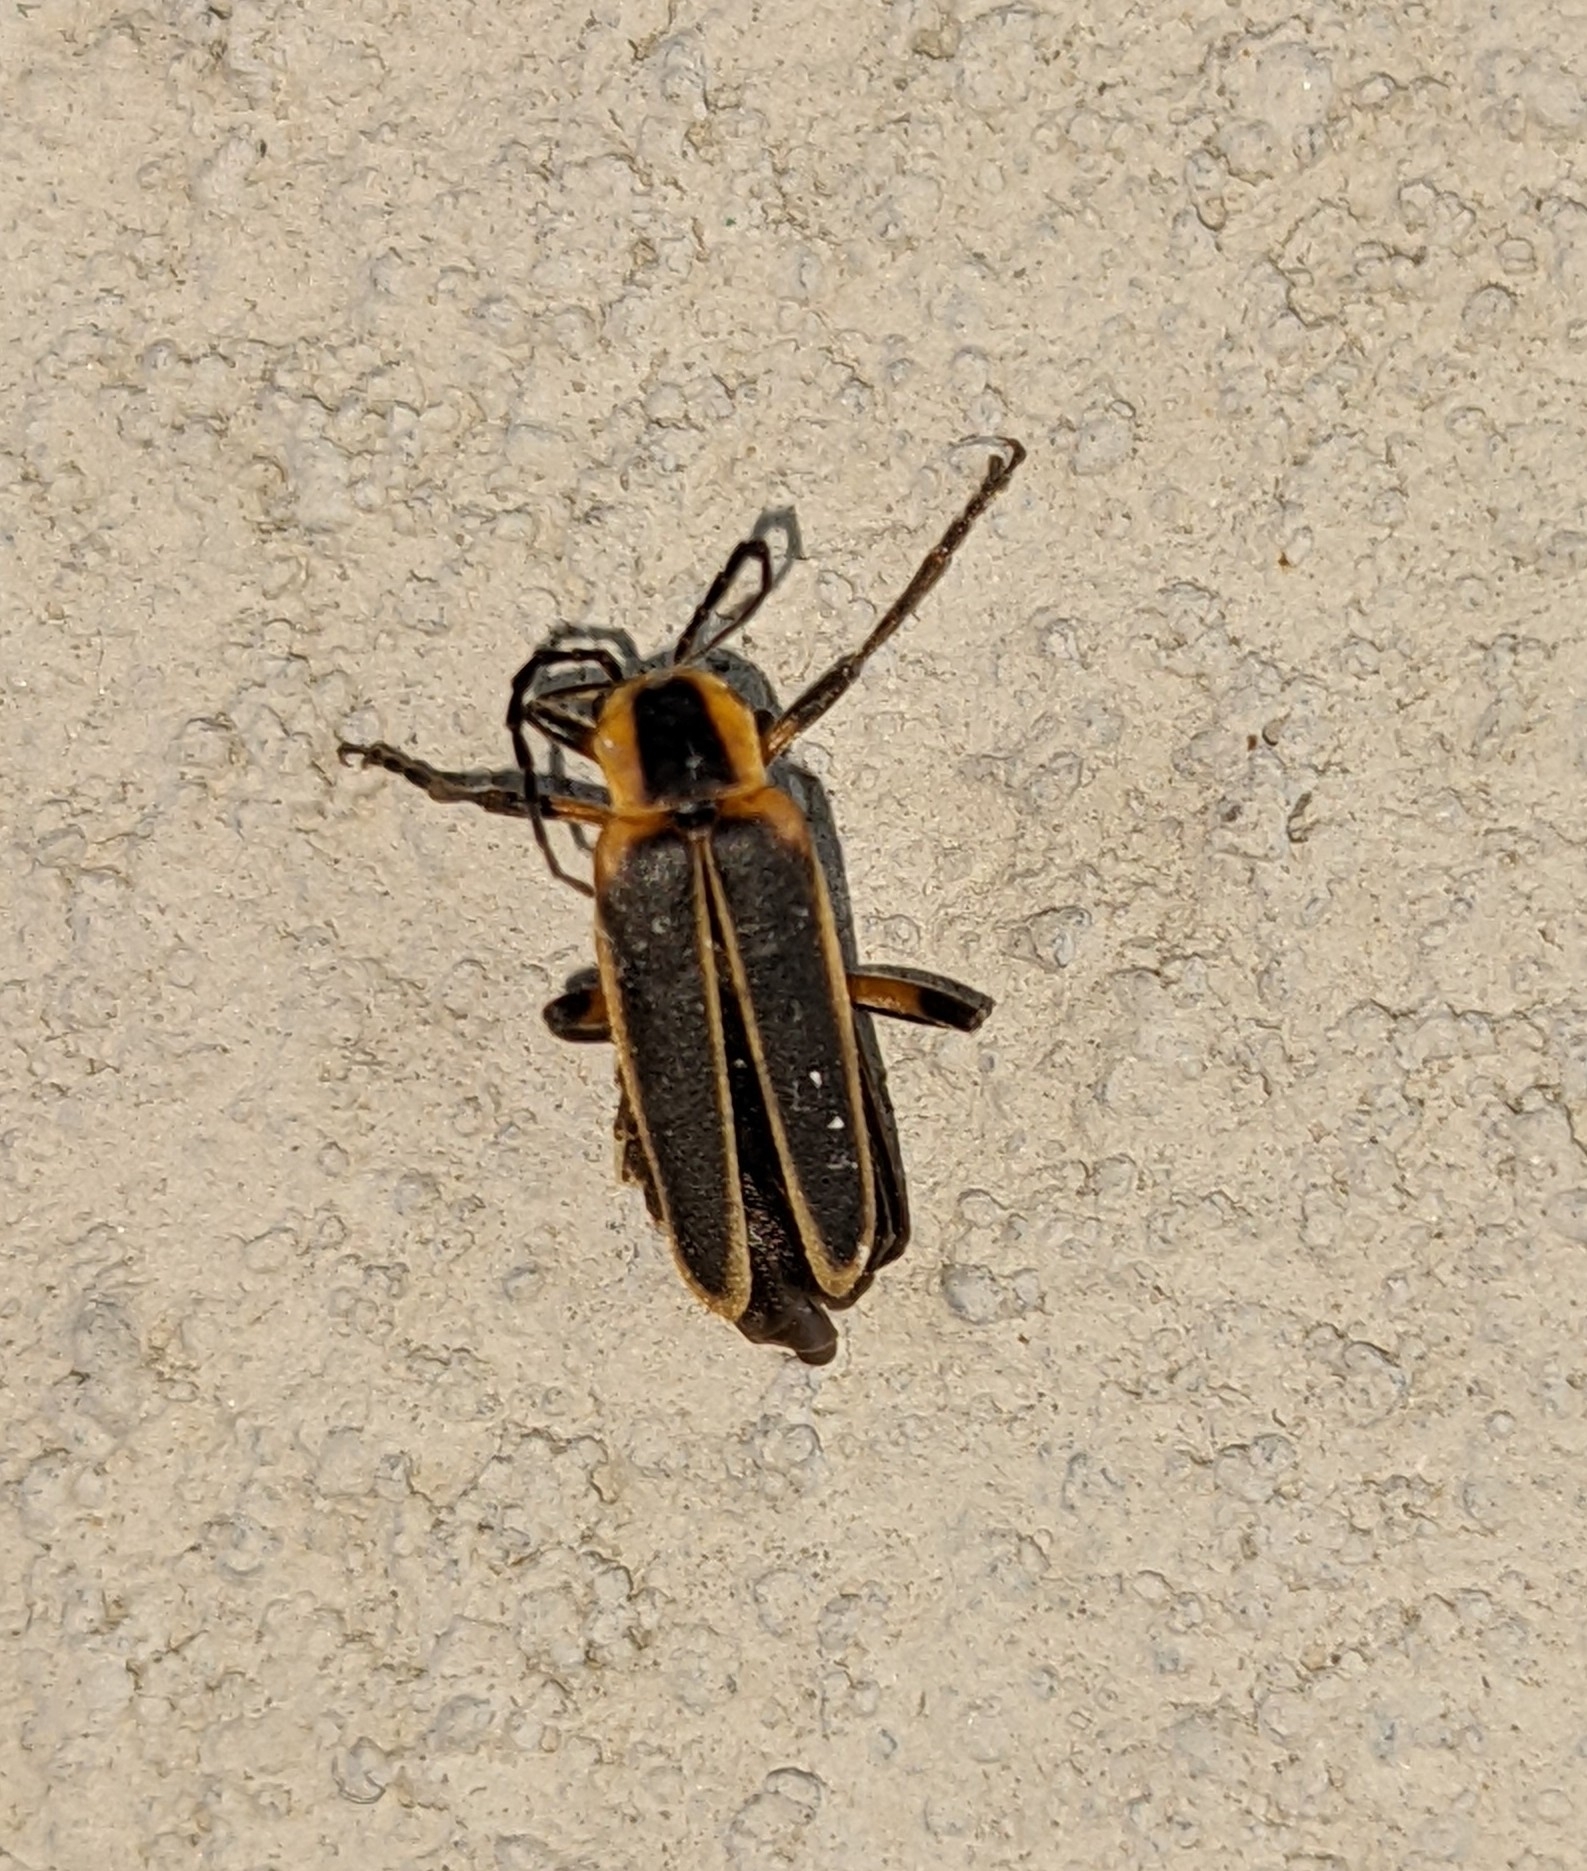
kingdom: Animalia
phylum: Arthropoda
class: Insecta
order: Coleoptera
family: Cantharidae
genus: Chauliognathus
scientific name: Chauliognathus marginatus
